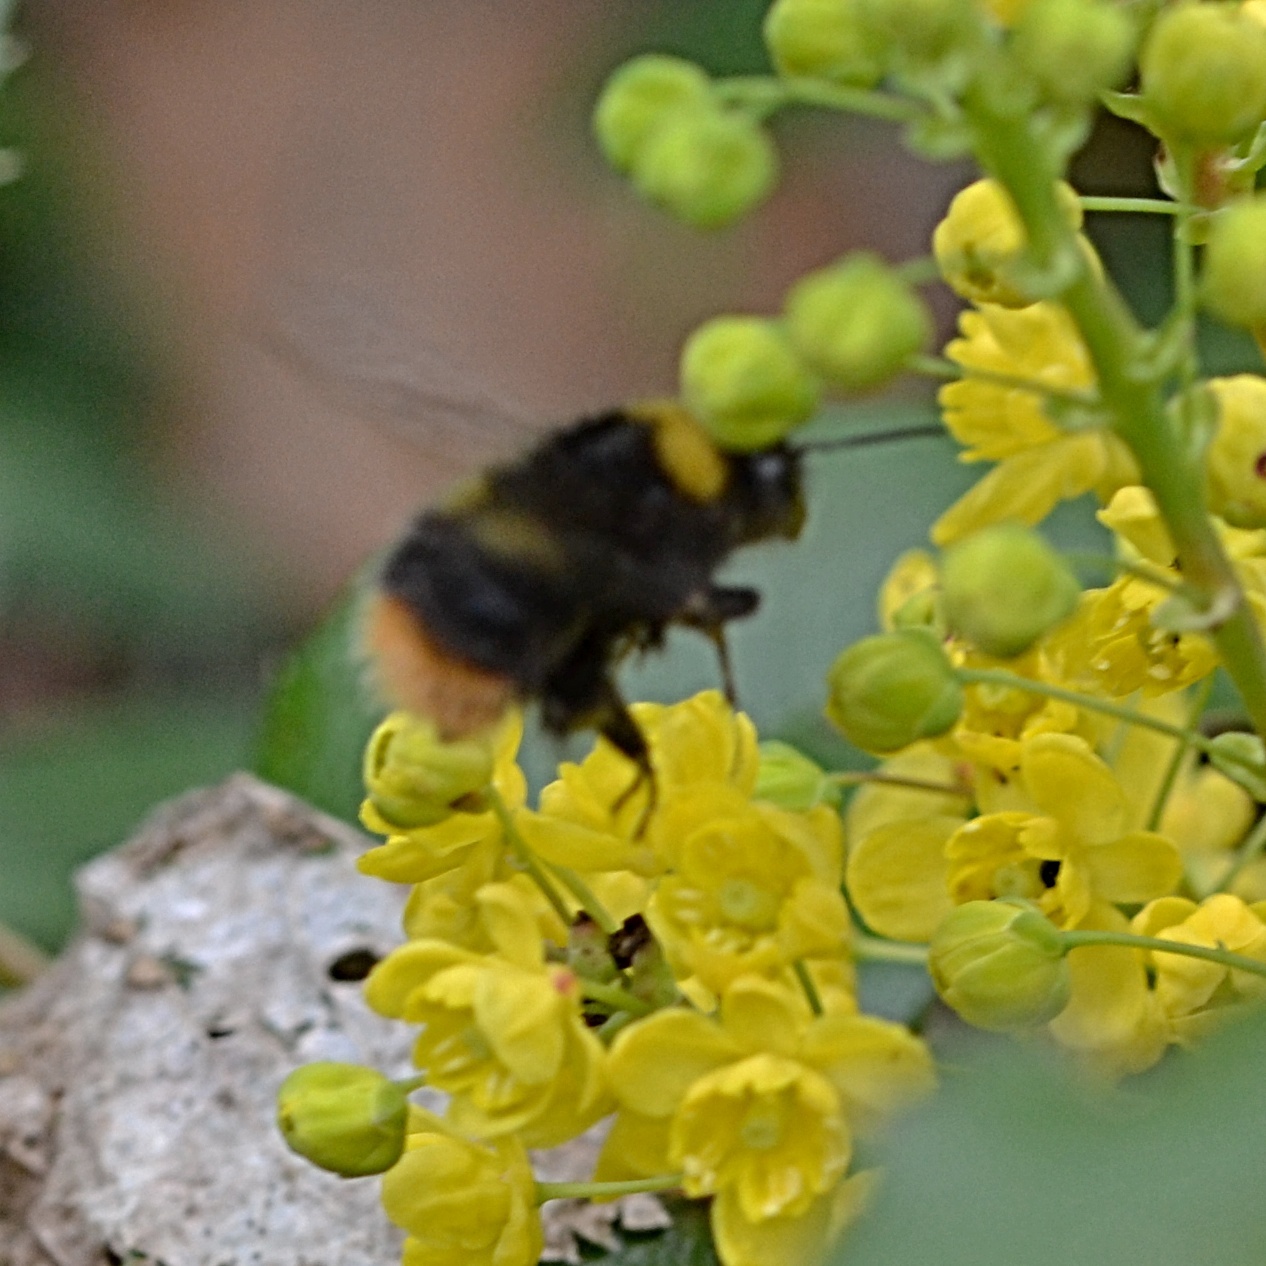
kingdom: Animalia
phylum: Arthropoda
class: Insecta
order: Hymenoptera
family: Apidae
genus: Bombus
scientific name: Bombus pratorum
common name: Early humble-bee
